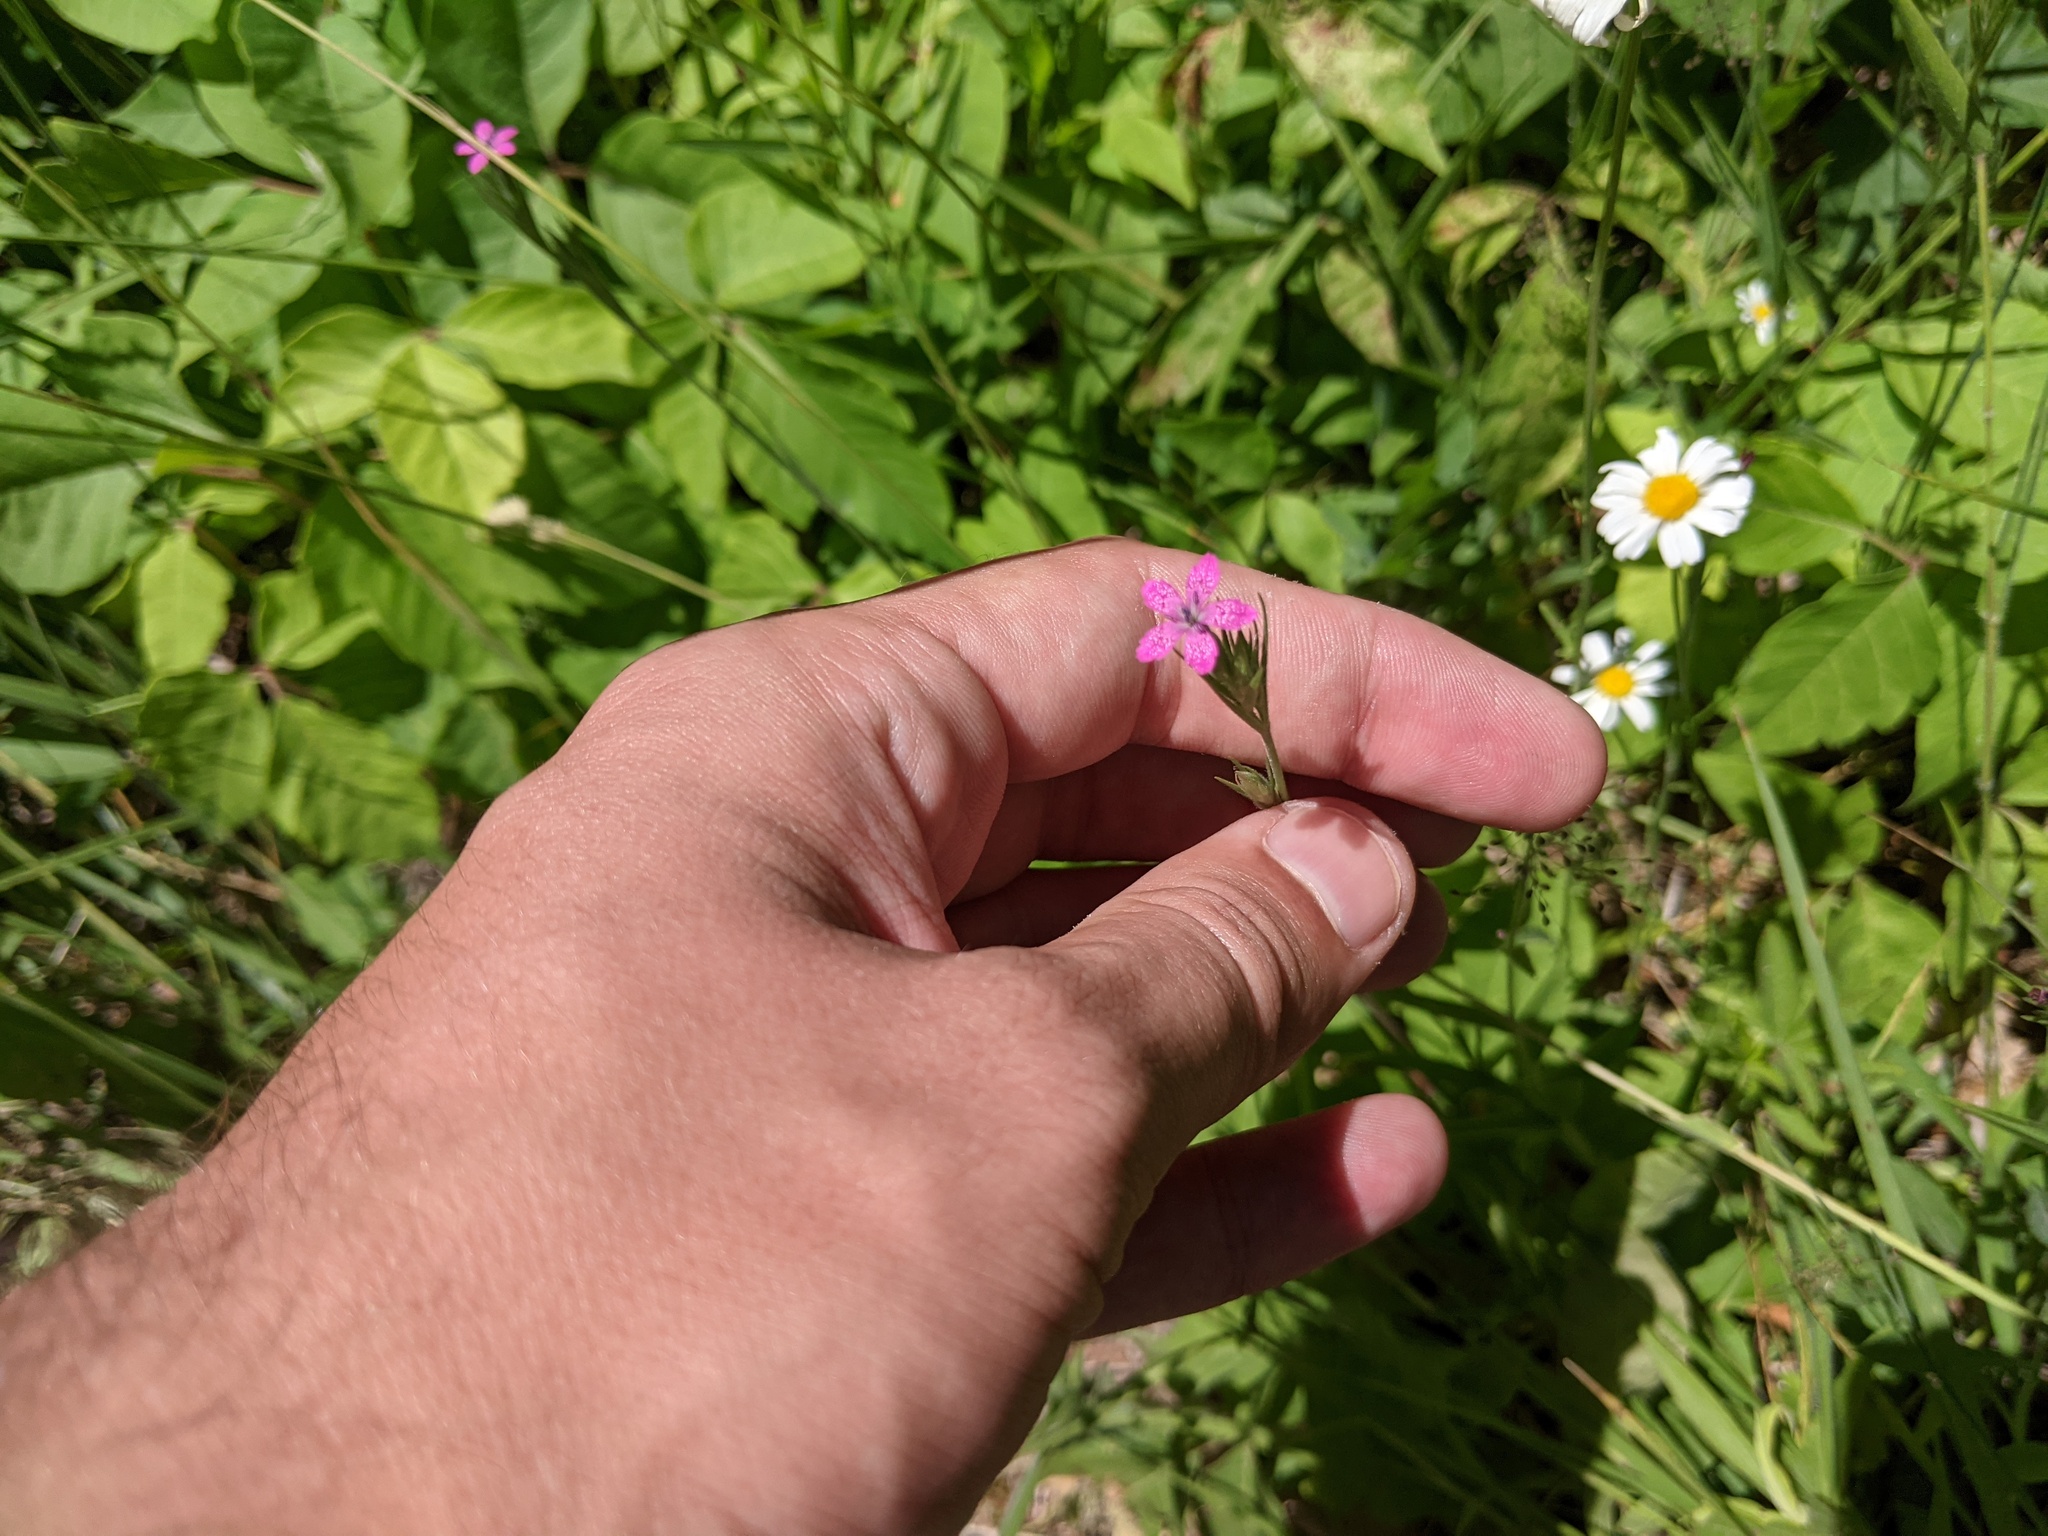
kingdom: Plantae
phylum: Tracheophyta
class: Magnoliopsida
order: Caryophyllales
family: Caryophyllaceae
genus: Dianthus
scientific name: Dianthus armeria
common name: Deptford pink
